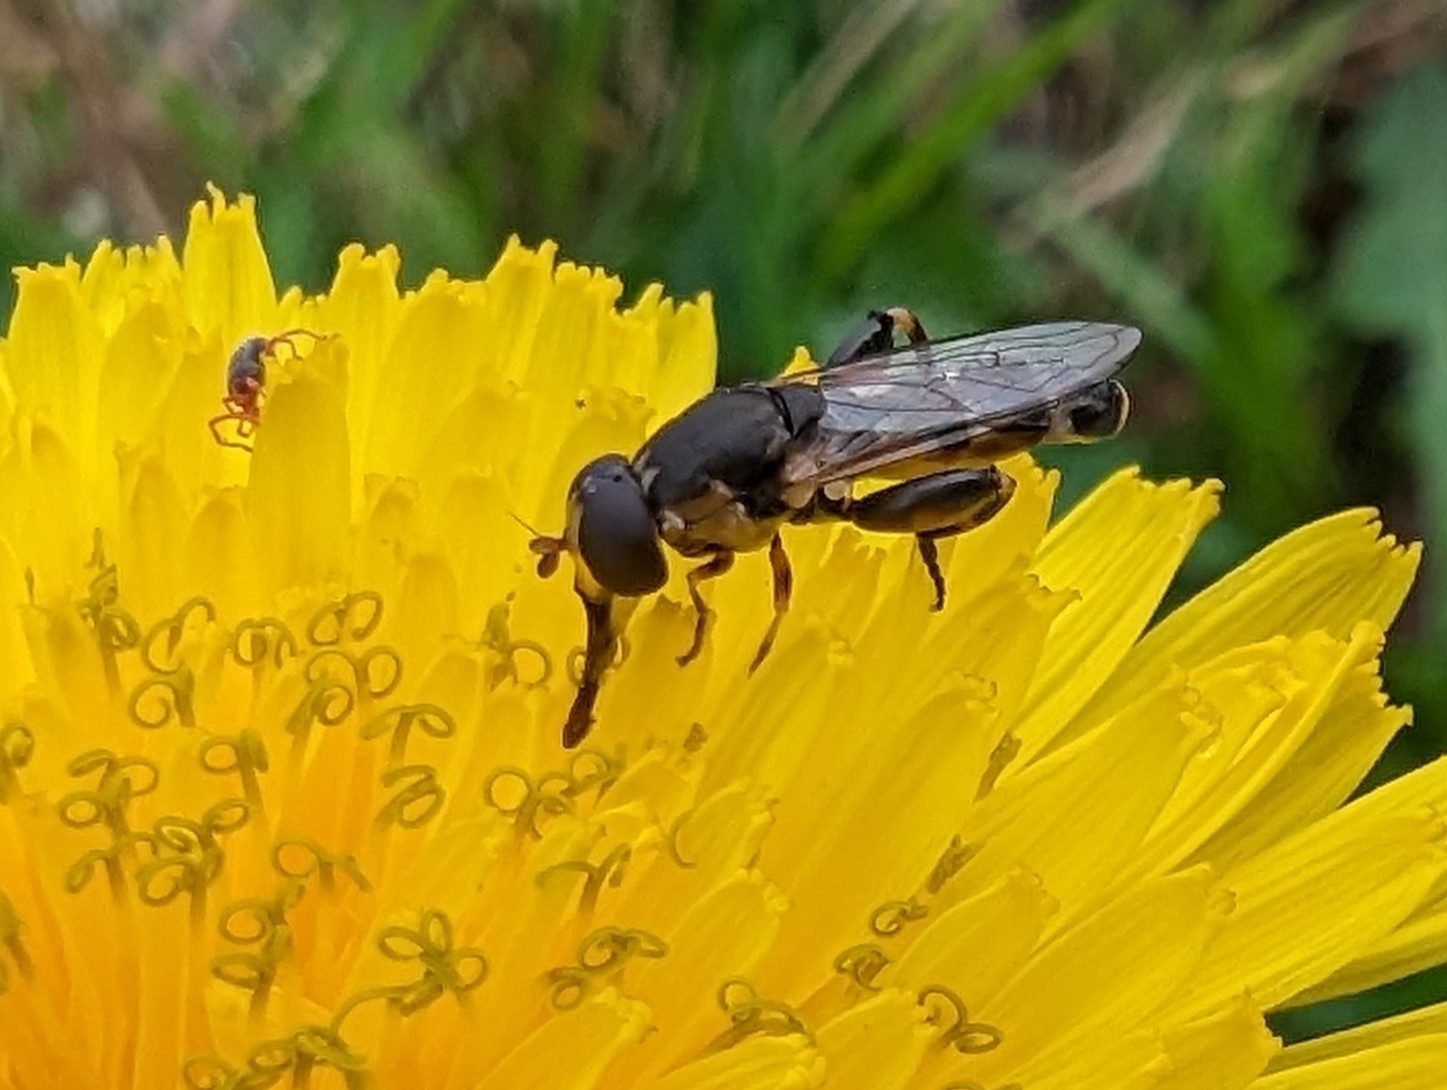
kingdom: Animalia
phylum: Arthropoda
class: Insecta
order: Diptera
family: Syrphidae
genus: Syritta
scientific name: Syritta pipiens
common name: Hover fly
